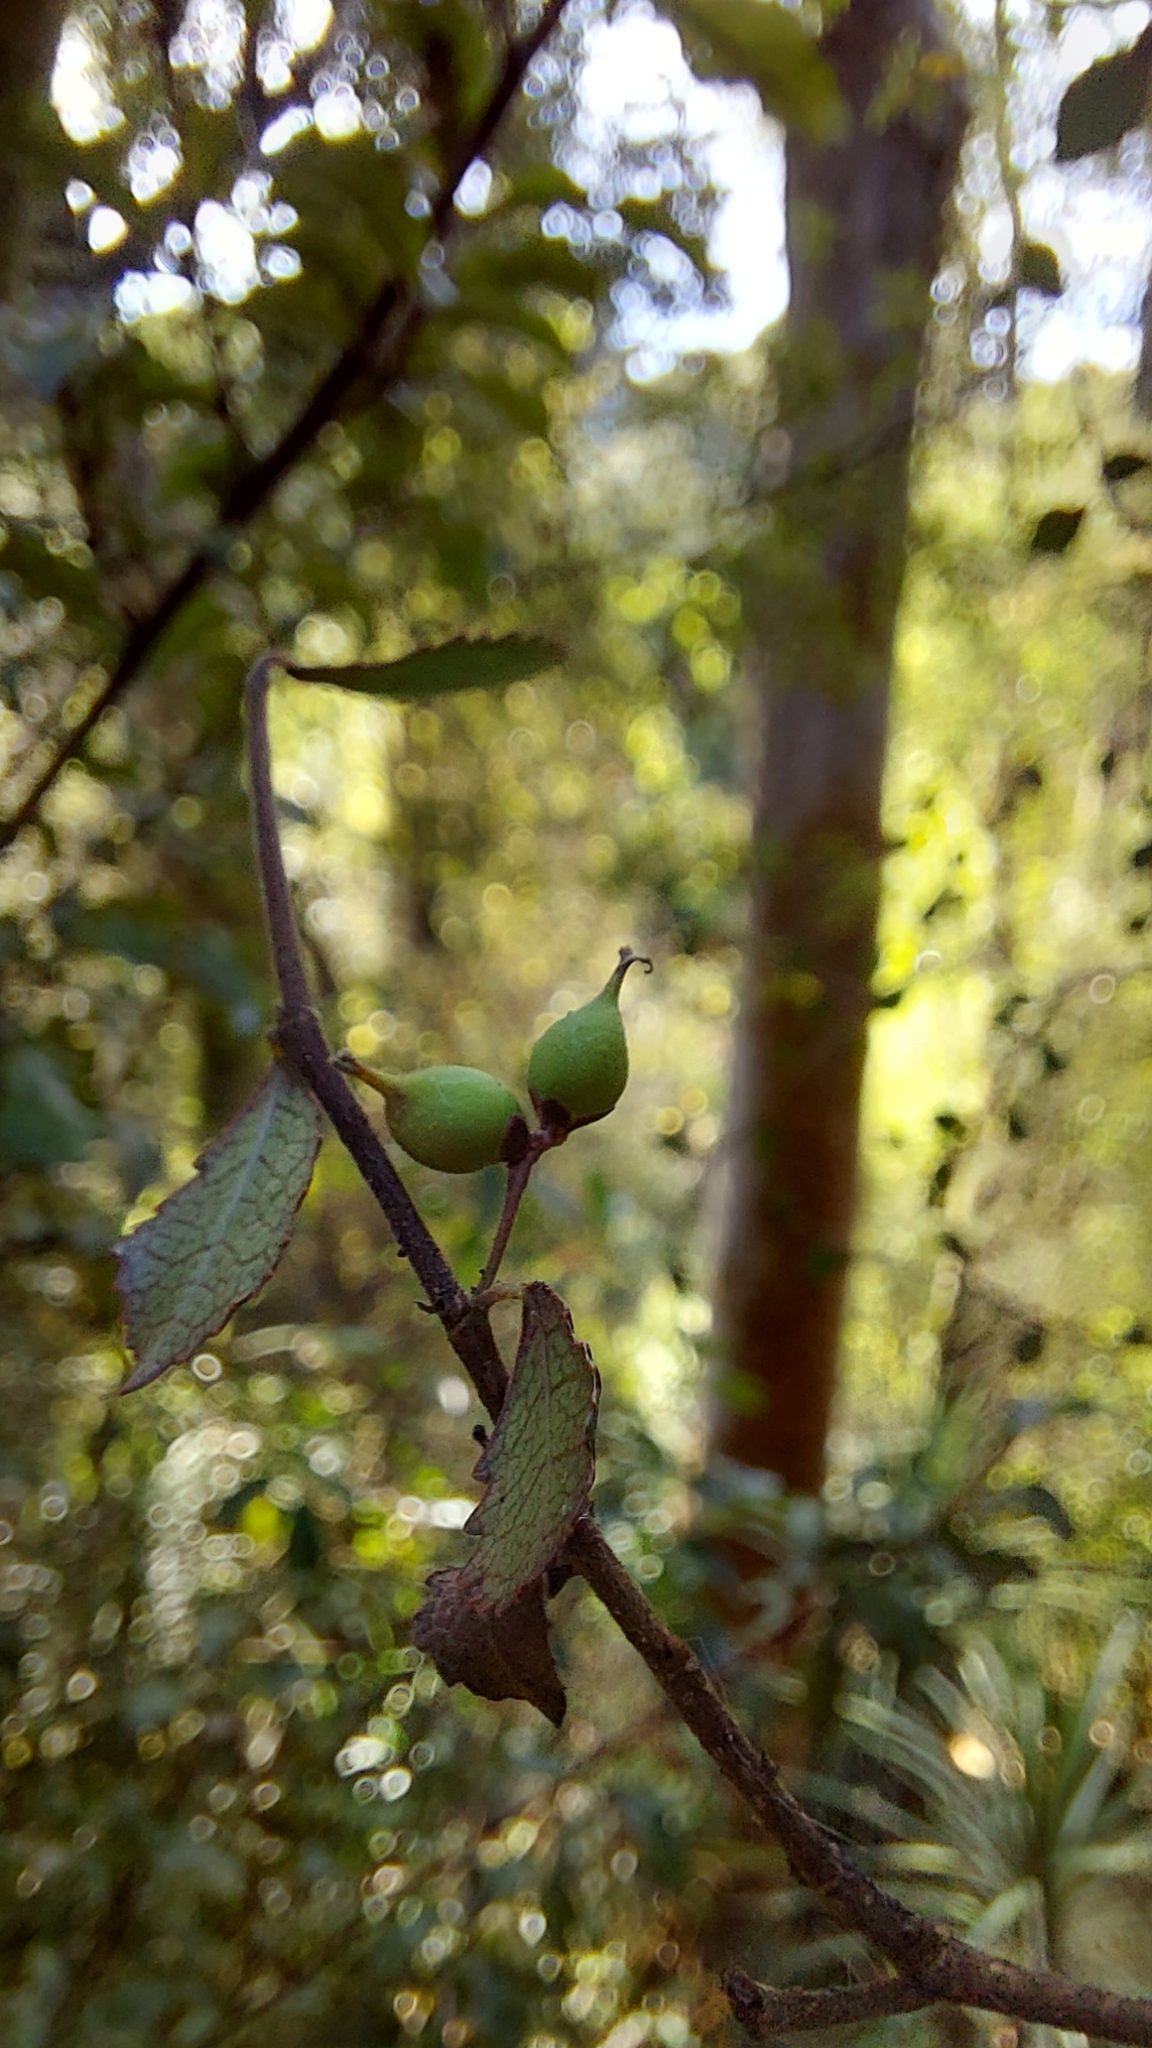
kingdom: Plantae
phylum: Tracheophyta
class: Magnoliopsida
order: Rosales
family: Moraceae
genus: Paratrophis
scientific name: Paratrophis microphylla
